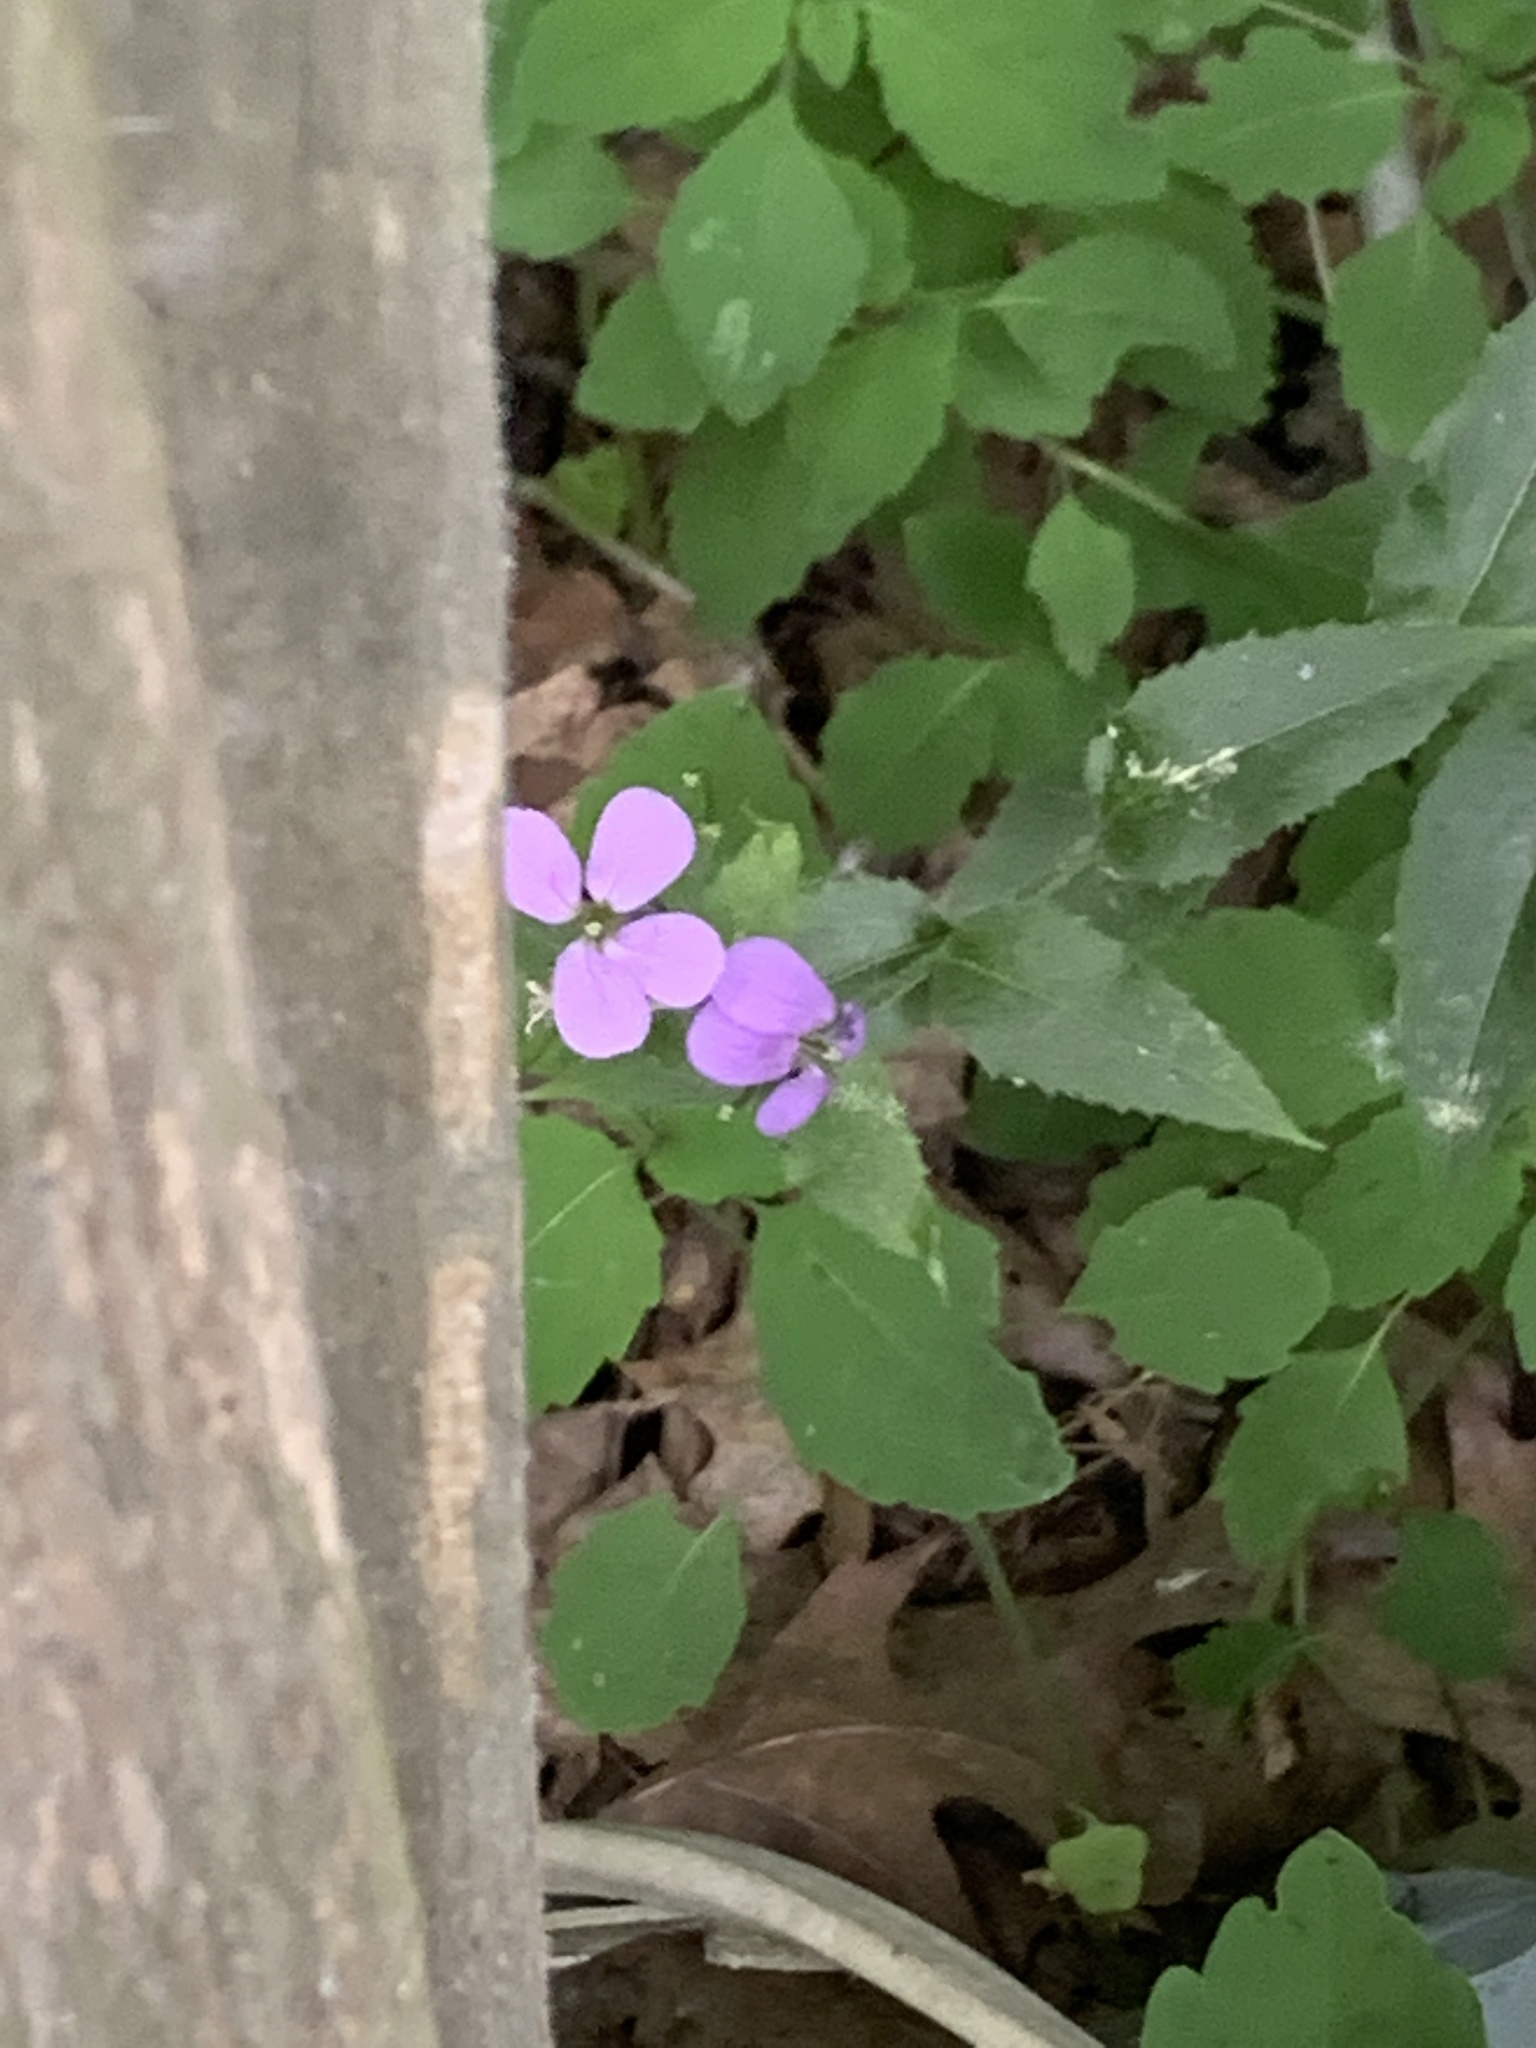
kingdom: Plantae
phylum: Tracheophyta
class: Magnoliopsida
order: Brassicales
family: Brassicaceae
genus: Hesperis
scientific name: Hesperis matronalis
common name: Dame's-violet
